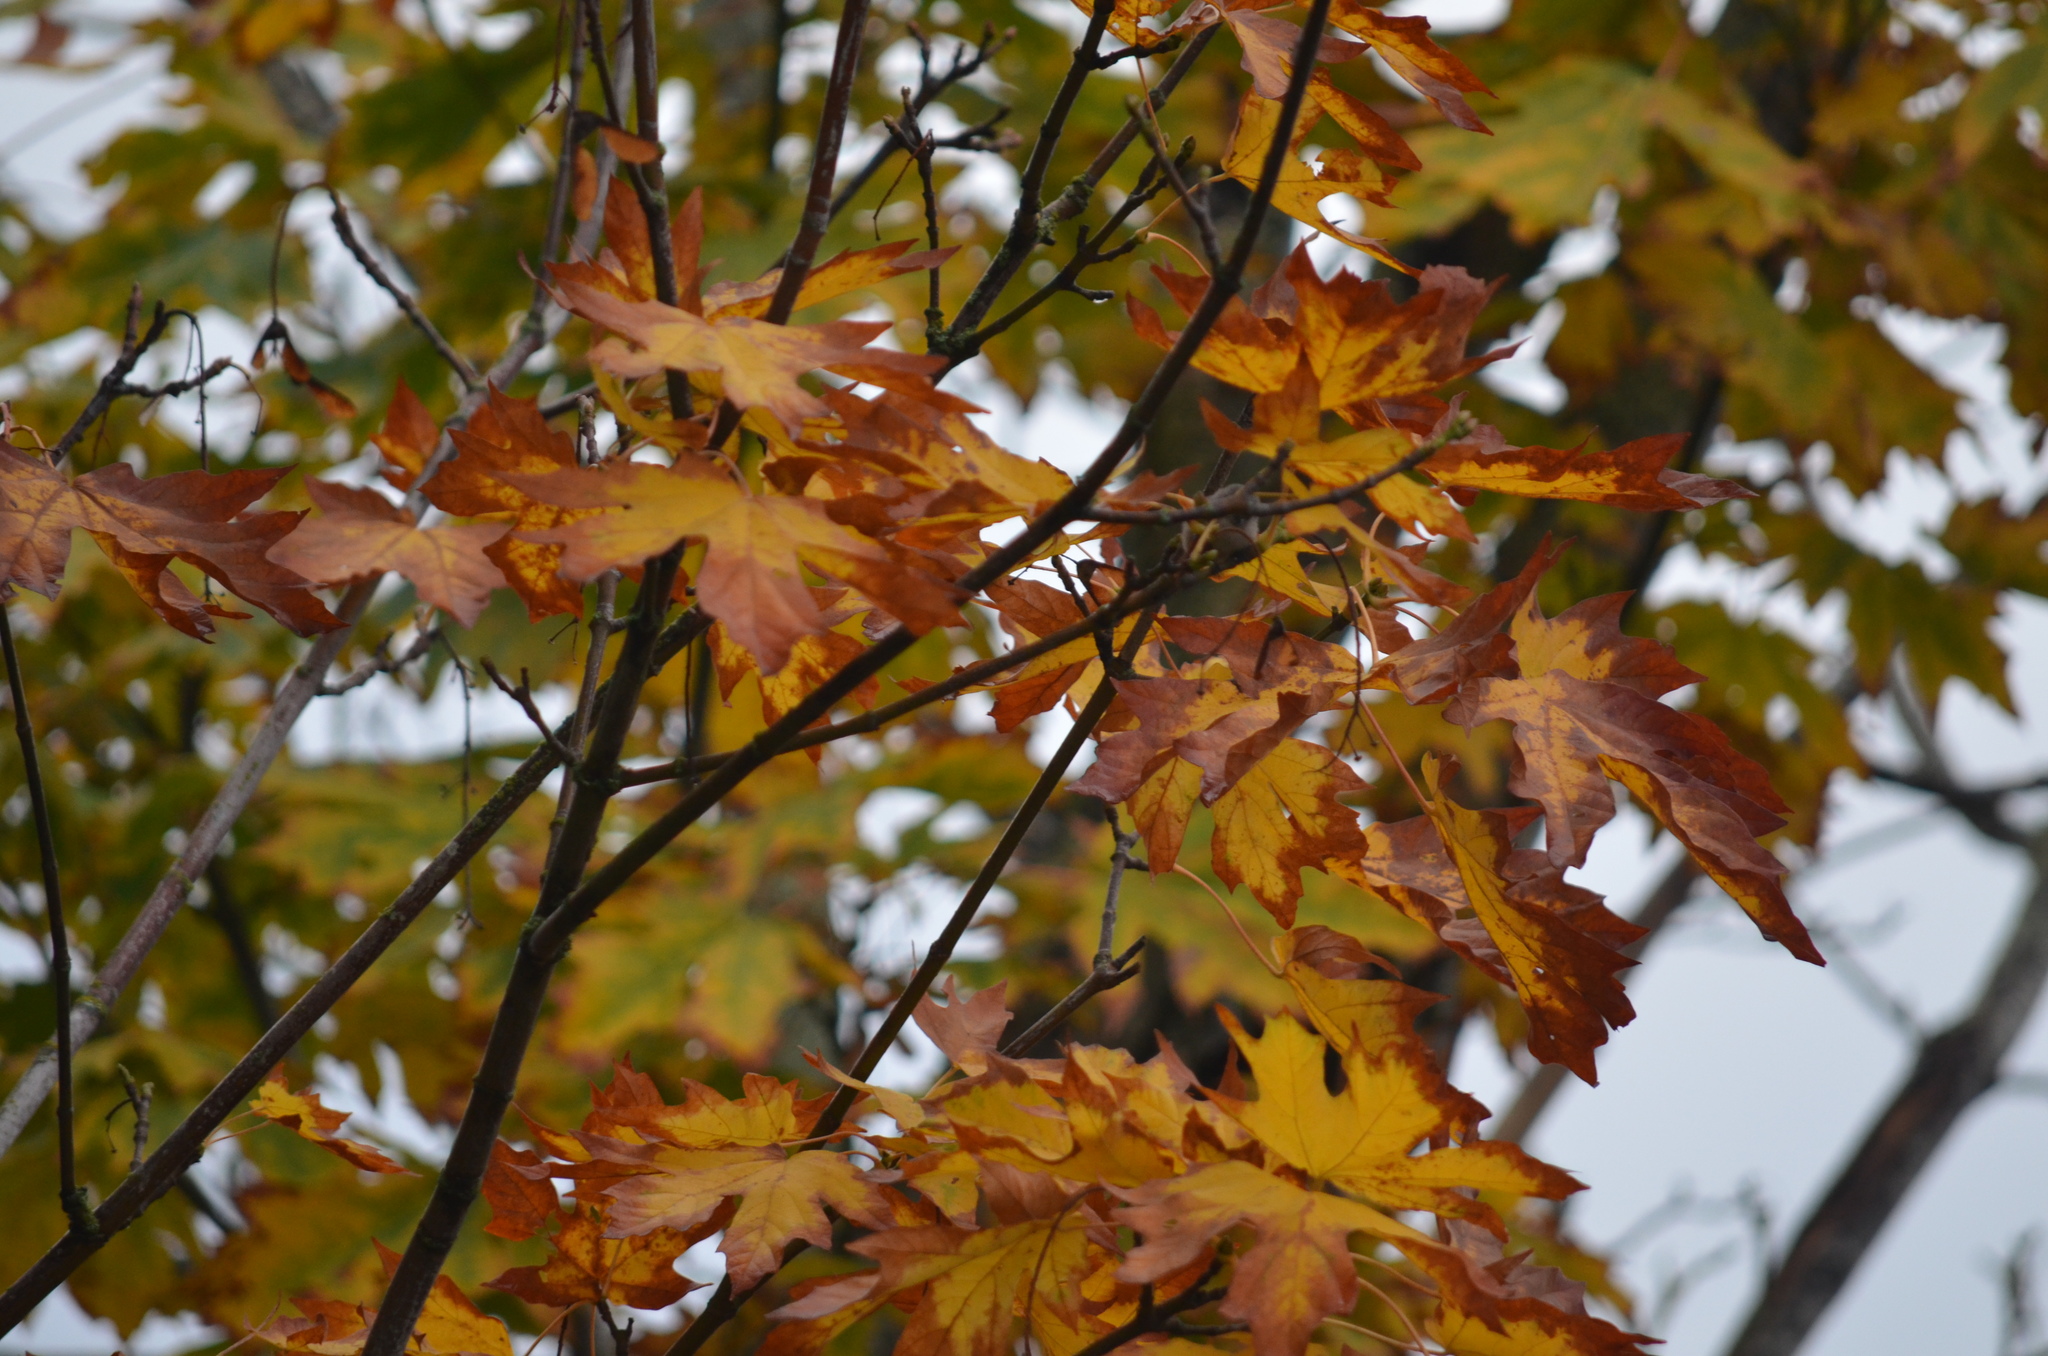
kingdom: Animalia
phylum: Chordata
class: Aves
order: Passeriformes
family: Aegithalidae
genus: Psaltriparus
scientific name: Psaltriparus minimus
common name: American bushtit
